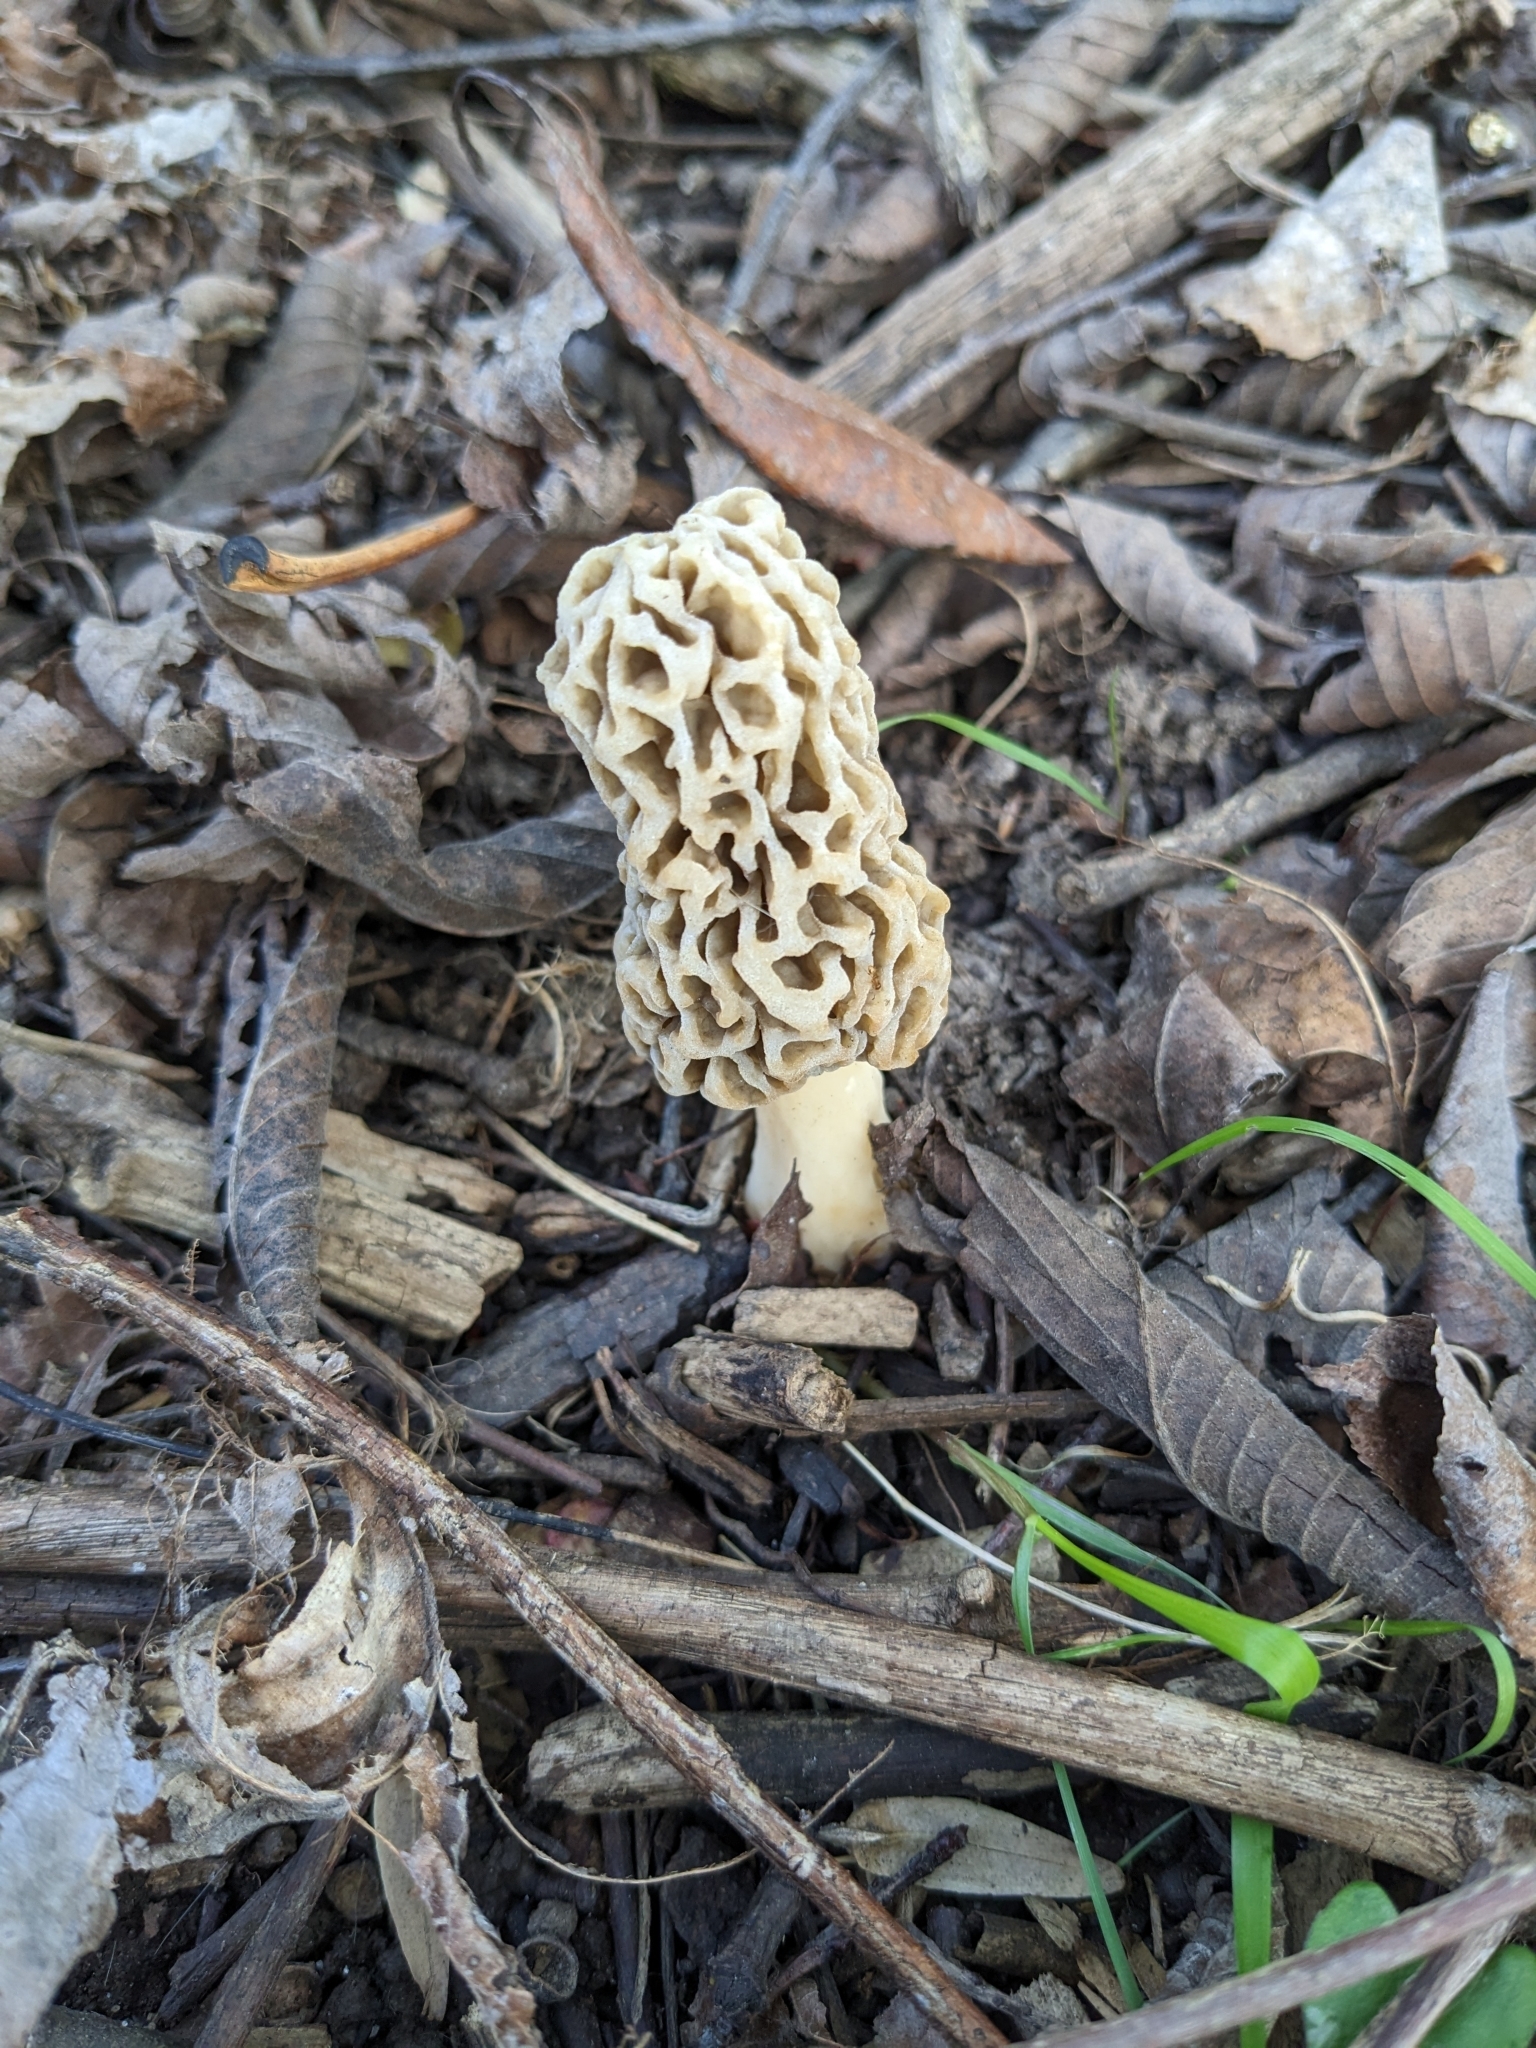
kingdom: Fungi
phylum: Ascomycota
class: Pezizomycetes
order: Pezizales
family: Morchellaceae
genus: Morchella
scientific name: Morchella americana
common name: White morel
